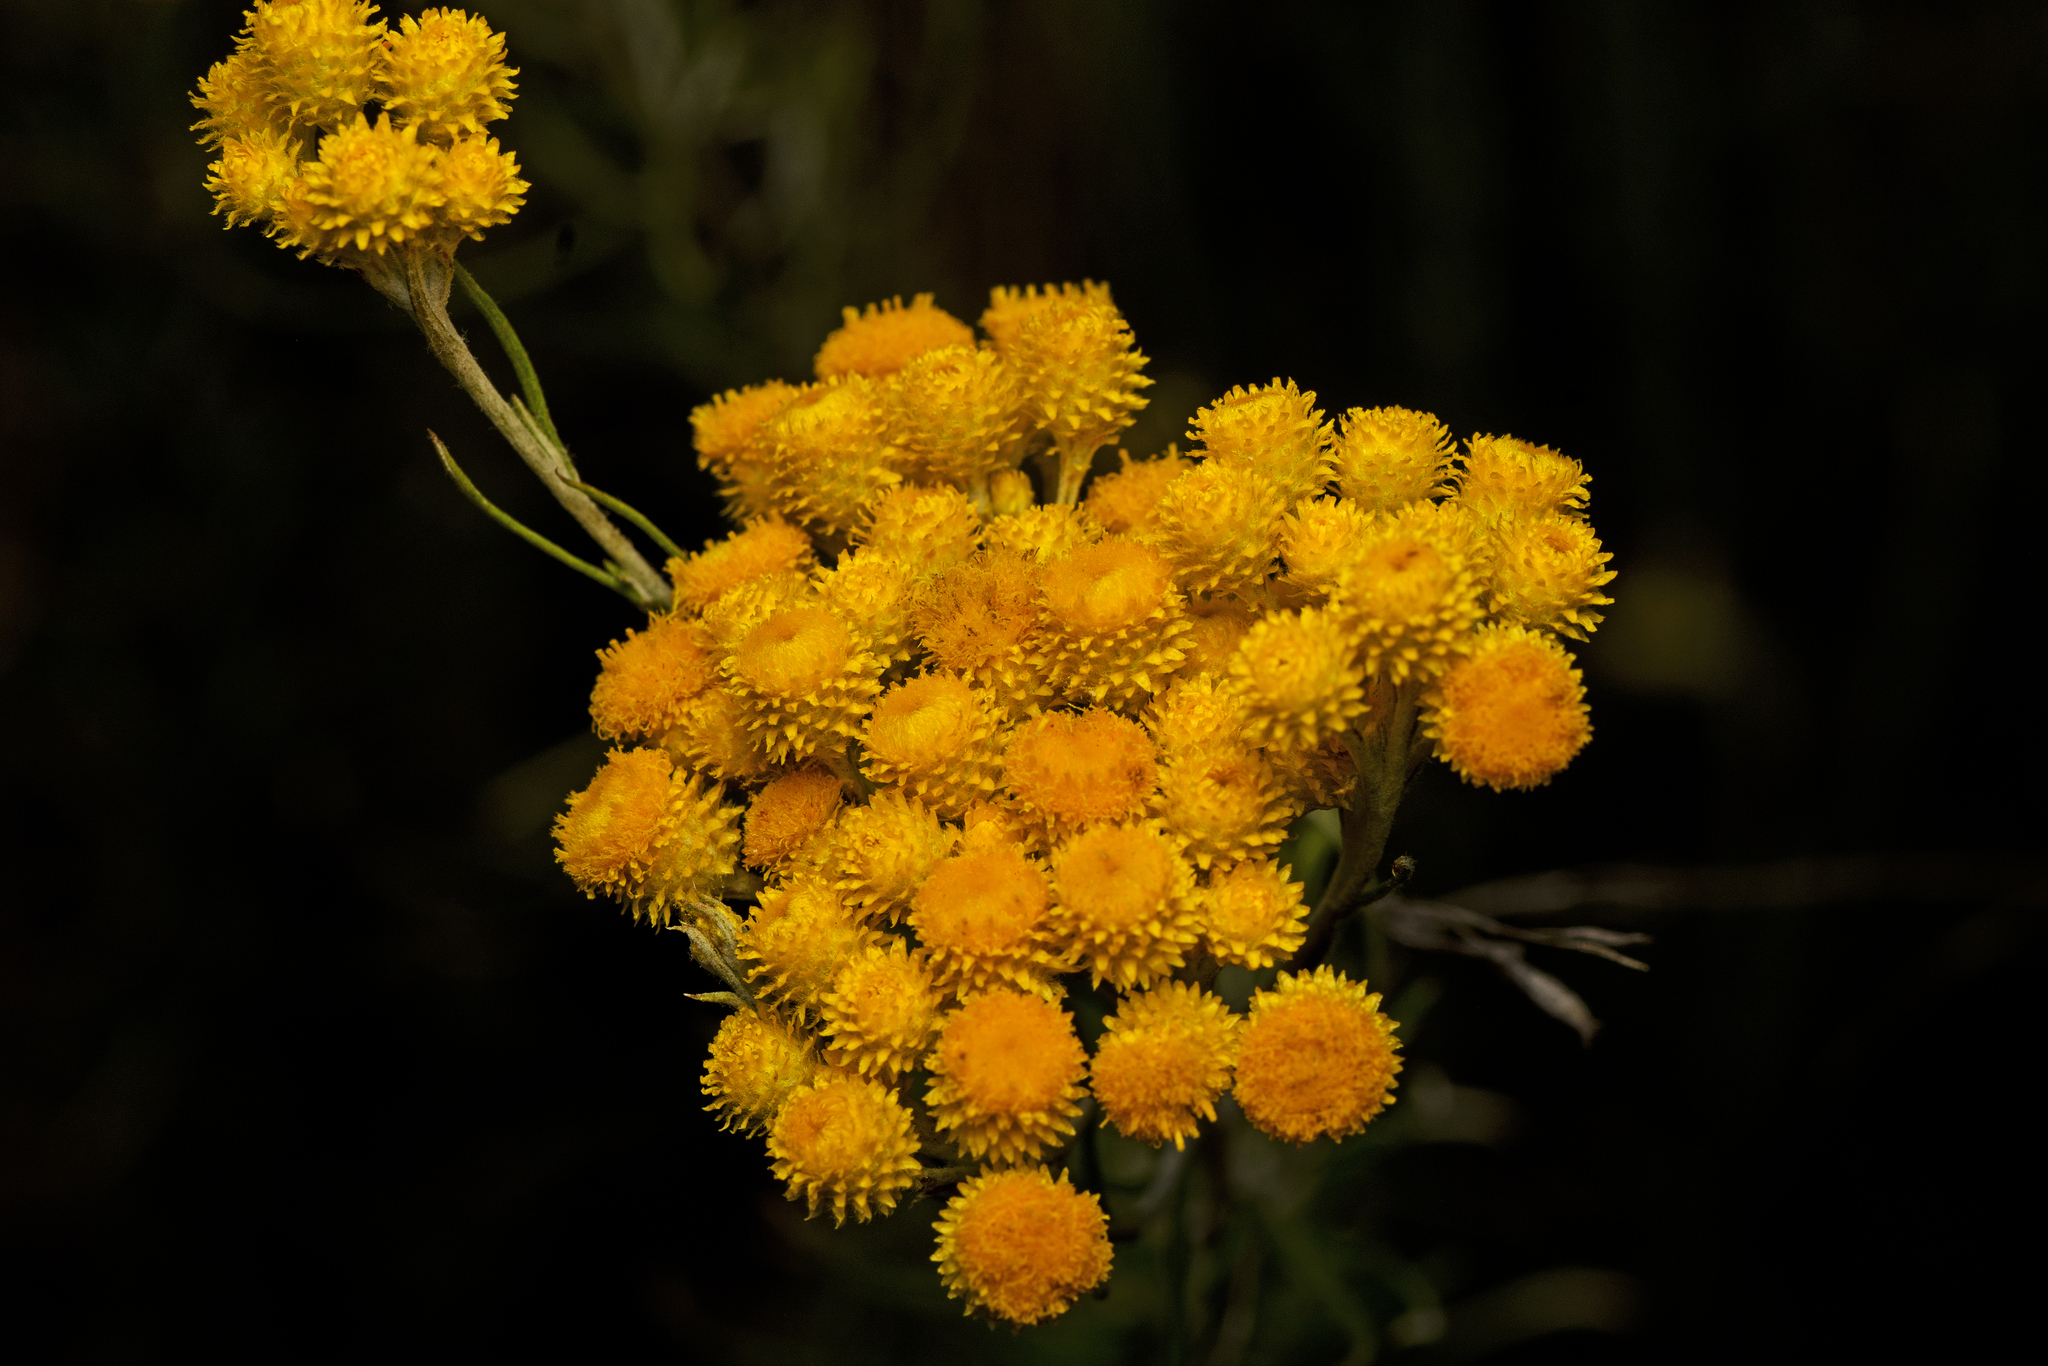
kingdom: Plantae
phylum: Tracheophyta
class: Magnoliopsida
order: Asterales
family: Asteraceae
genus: Chrysocephalum
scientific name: Chrysocephalum semipapposum
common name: Clustered everlasting
